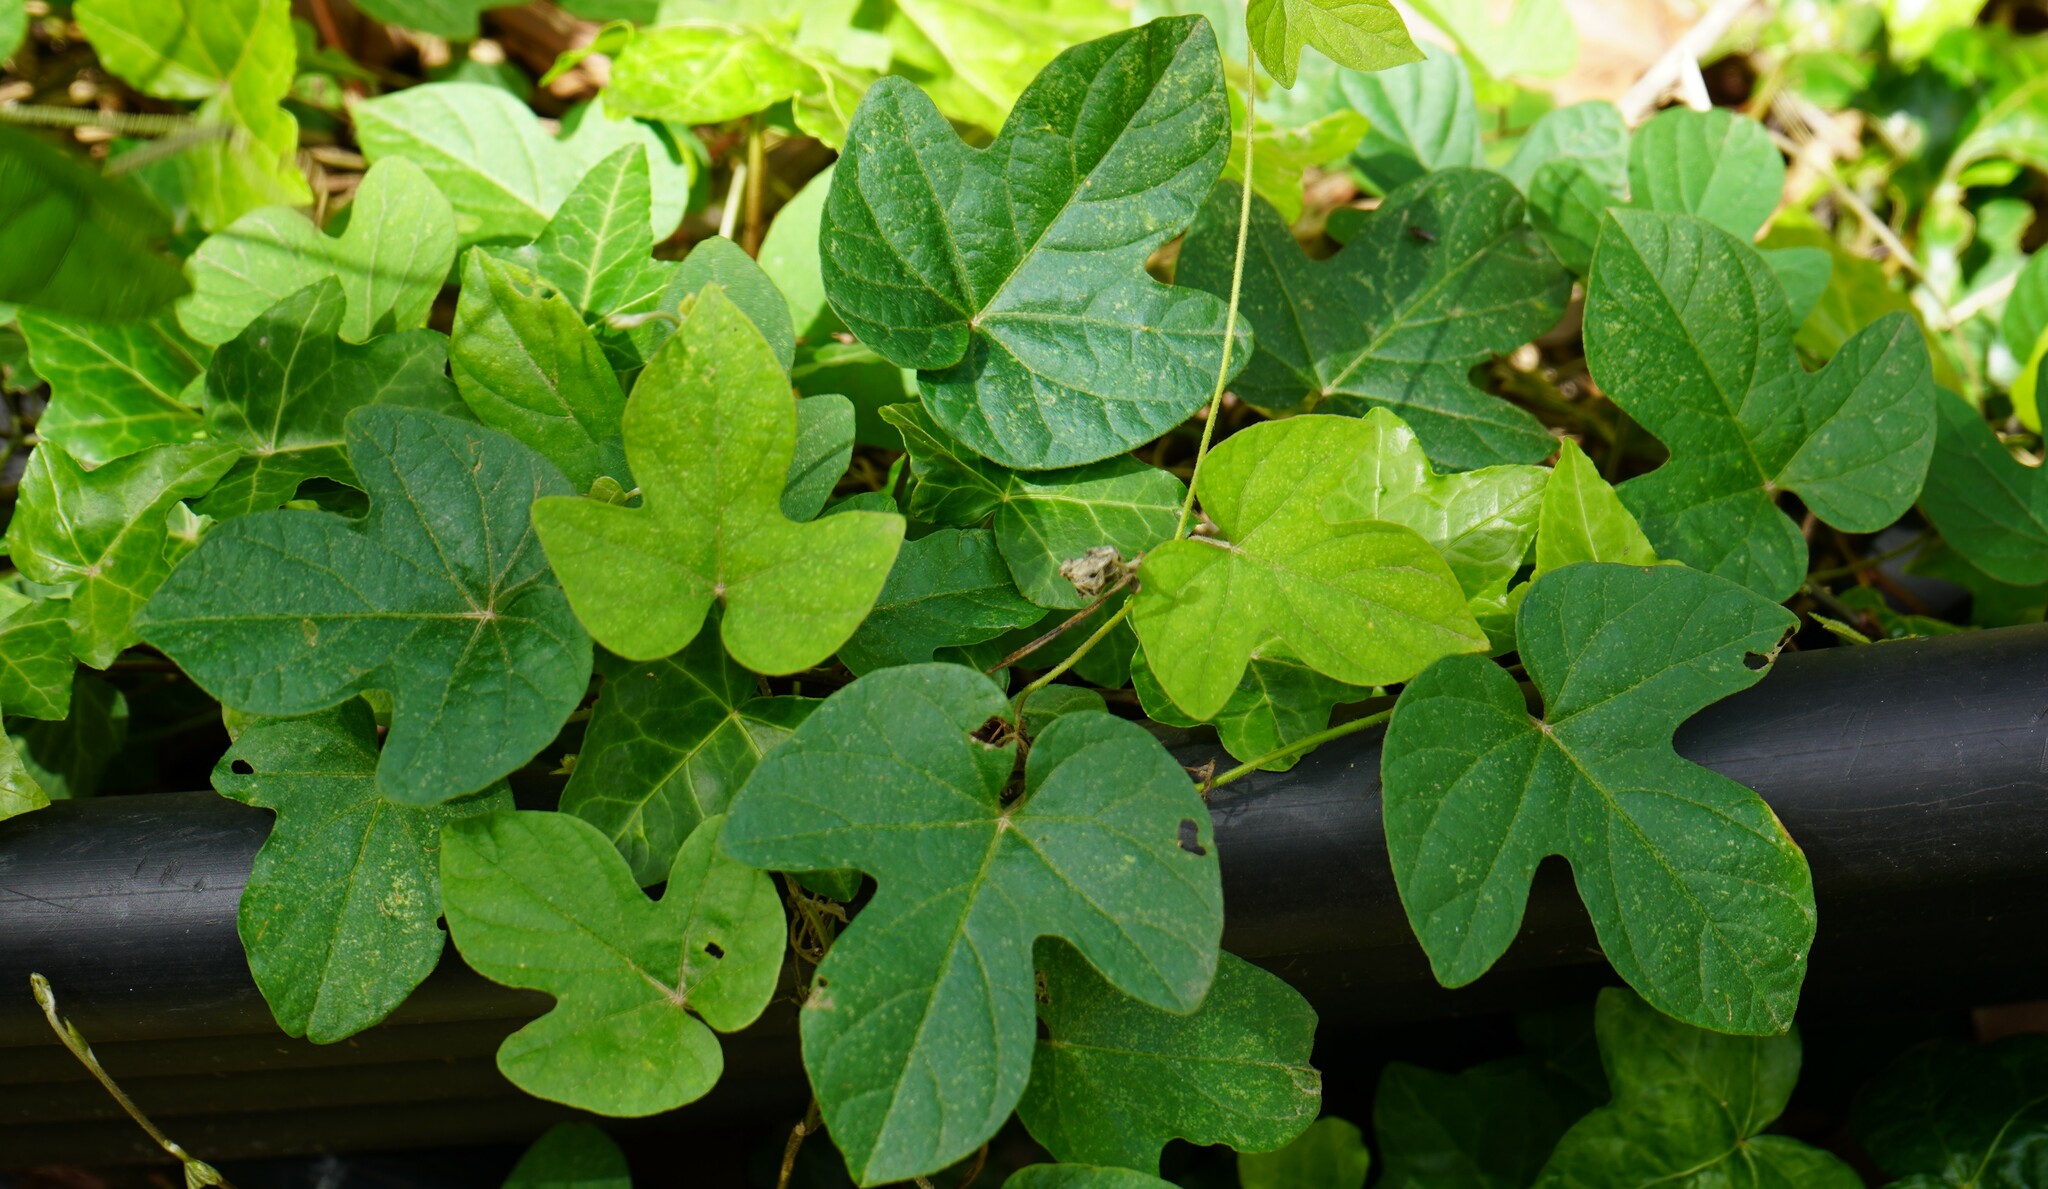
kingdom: Plantae
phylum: Tracheophyta
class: Magnoliopsida
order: Solanales
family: Convolvulaceae
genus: Ipomoea
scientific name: Ipomoea indica
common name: Blue dawnflower
